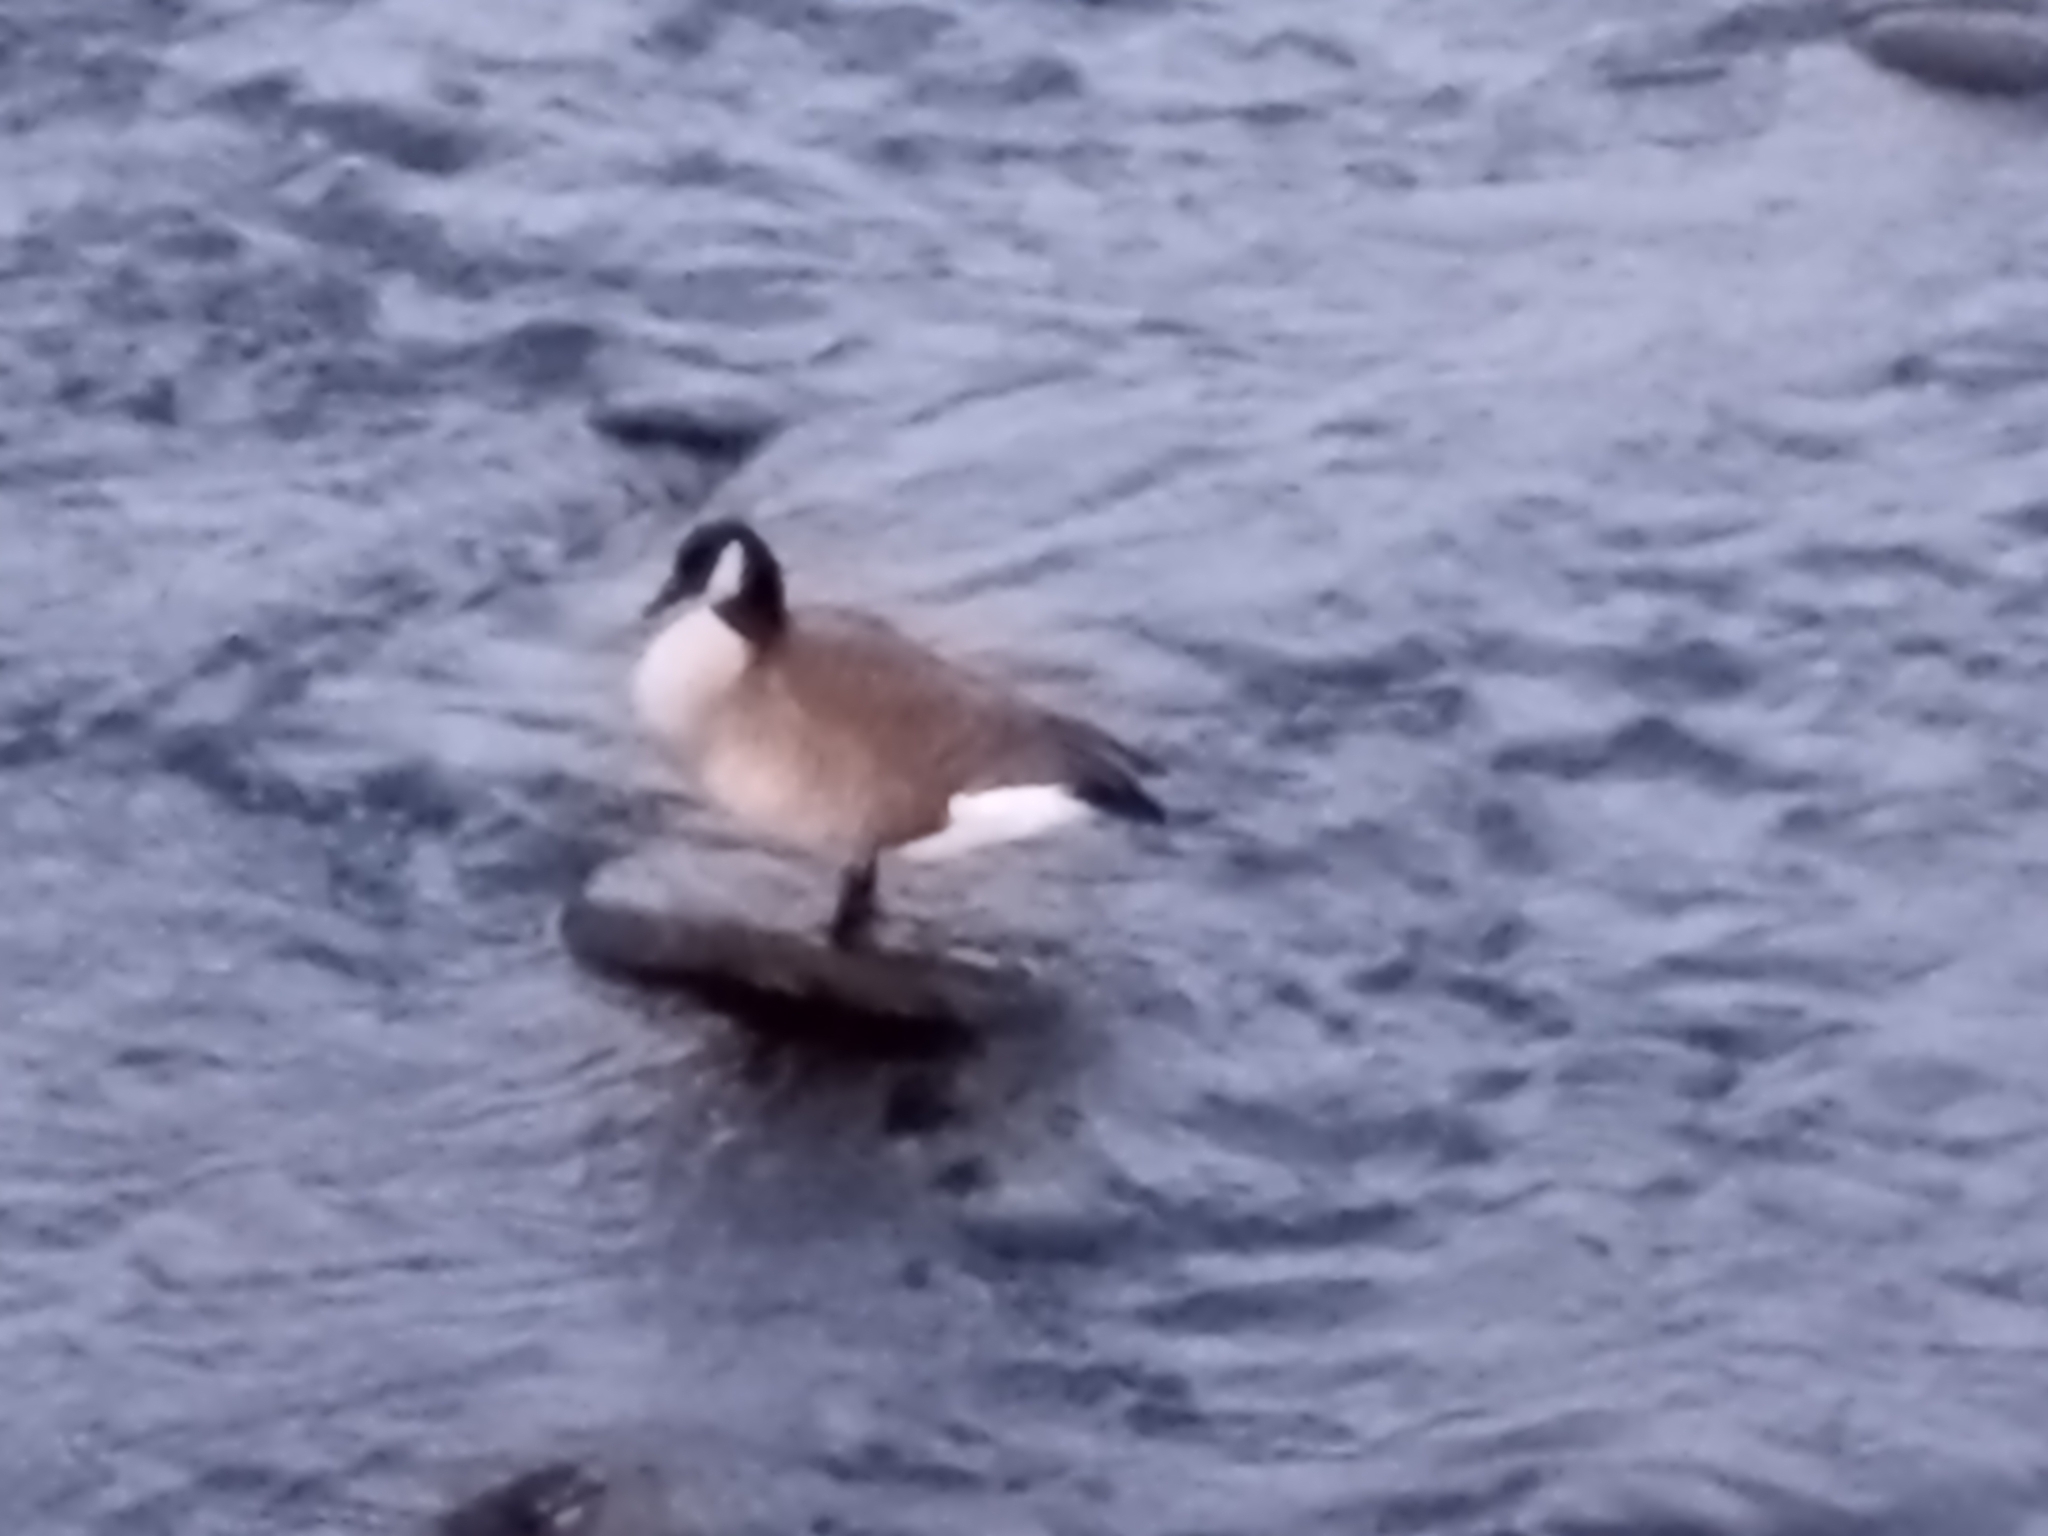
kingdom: Animalia
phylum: Chordata
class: Aves
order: Anseriformes
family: Anatidae
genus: Branta
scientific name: Branta canadensis
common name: Canada goose
